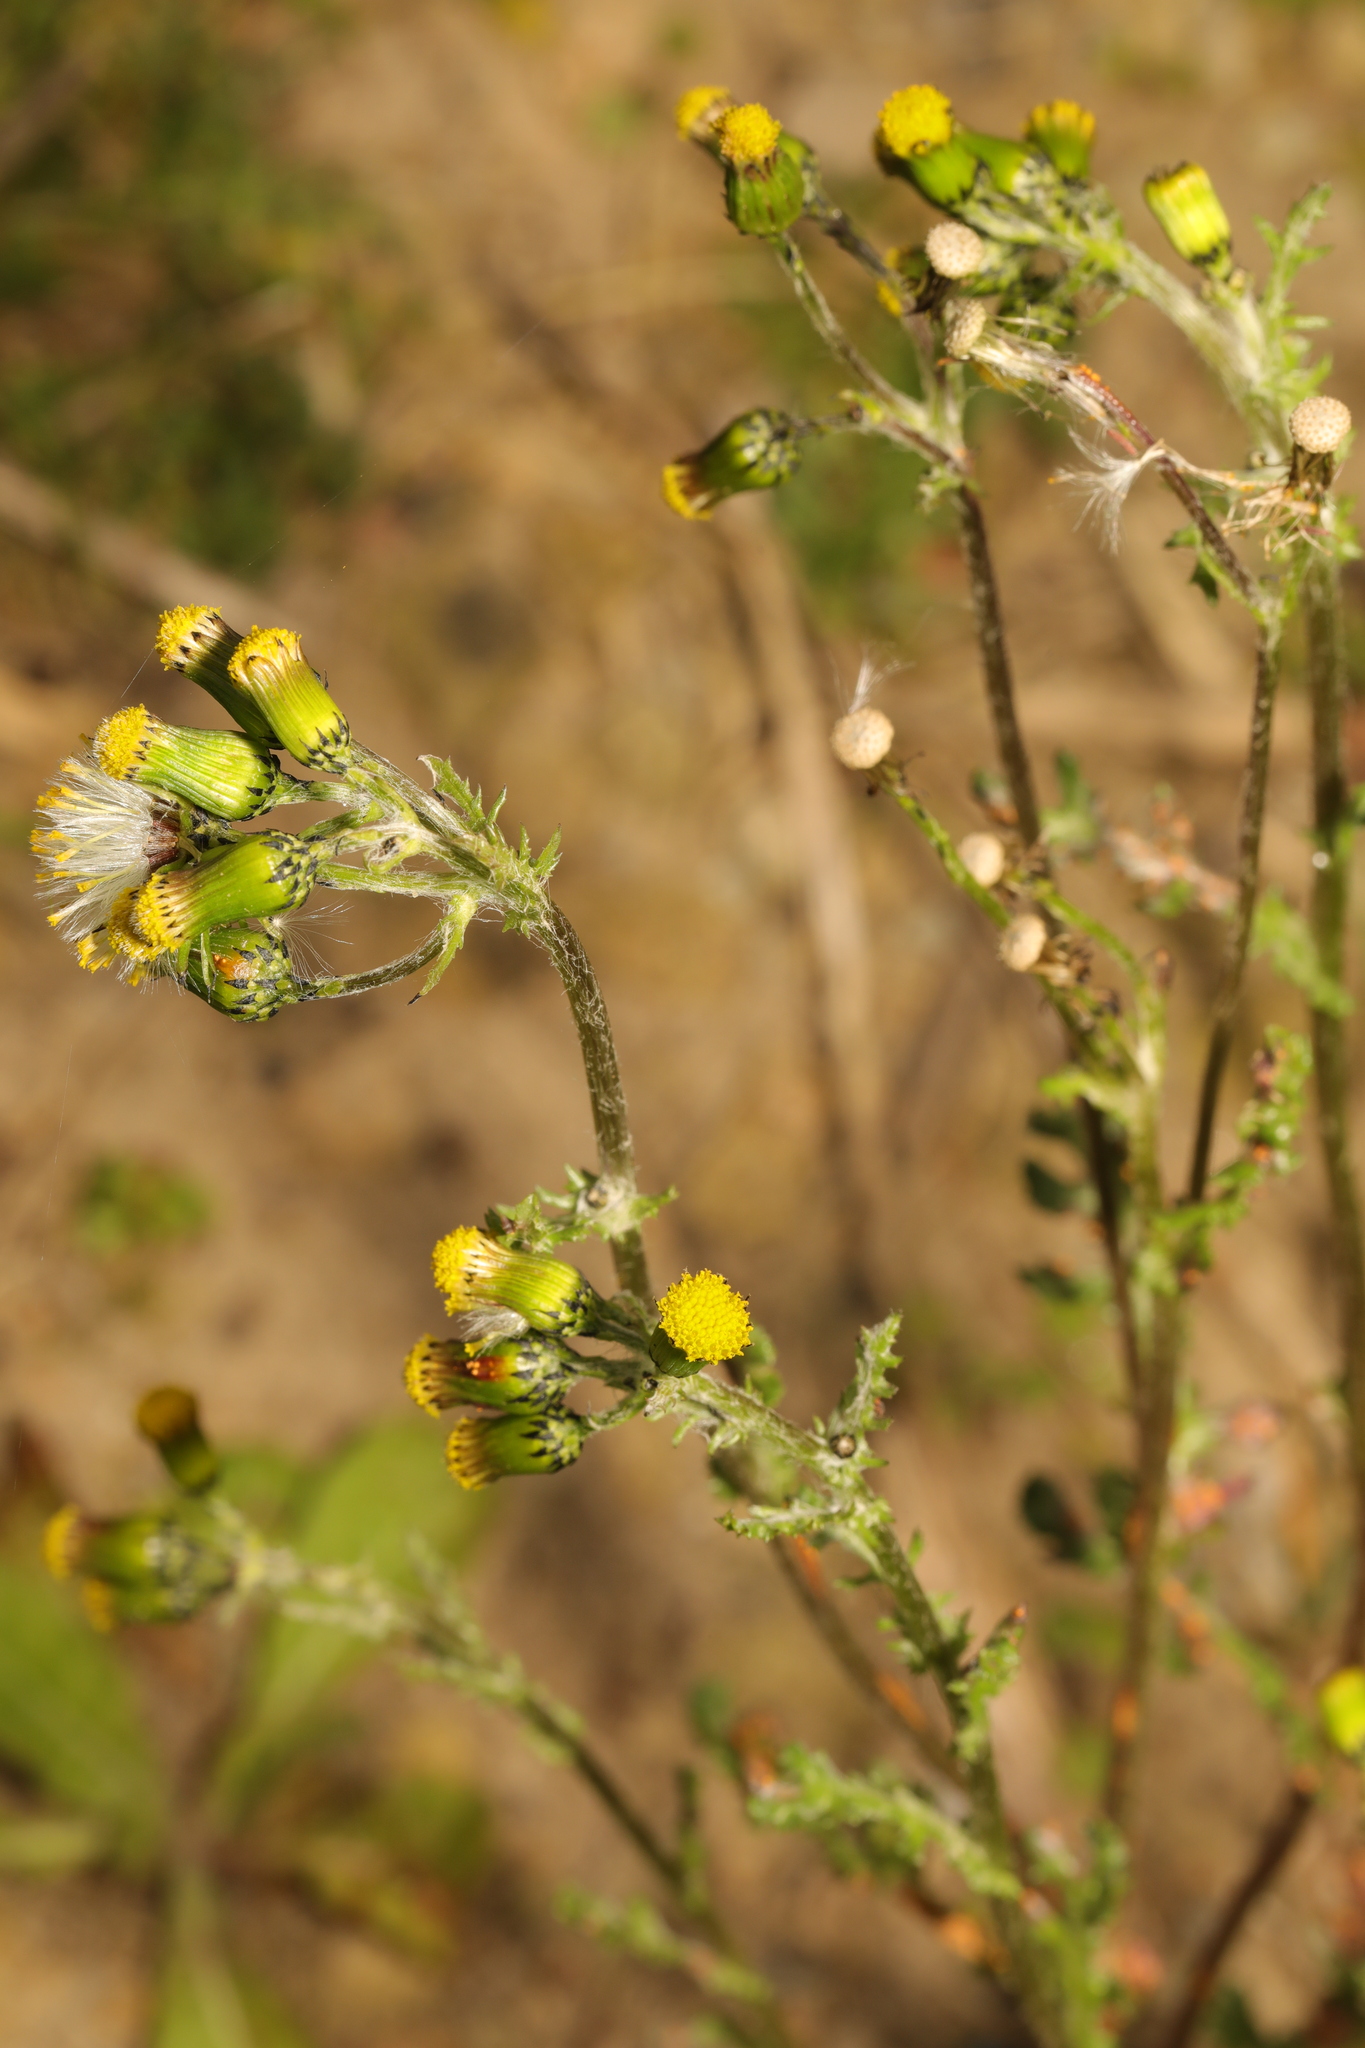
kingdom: Plantae
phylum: Tracheophyta
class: Magnoliopsida
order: Asterales
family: Asteraceae
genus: Senecio
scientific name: Senecio vulgaris
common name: Old-man-in-the-spring
